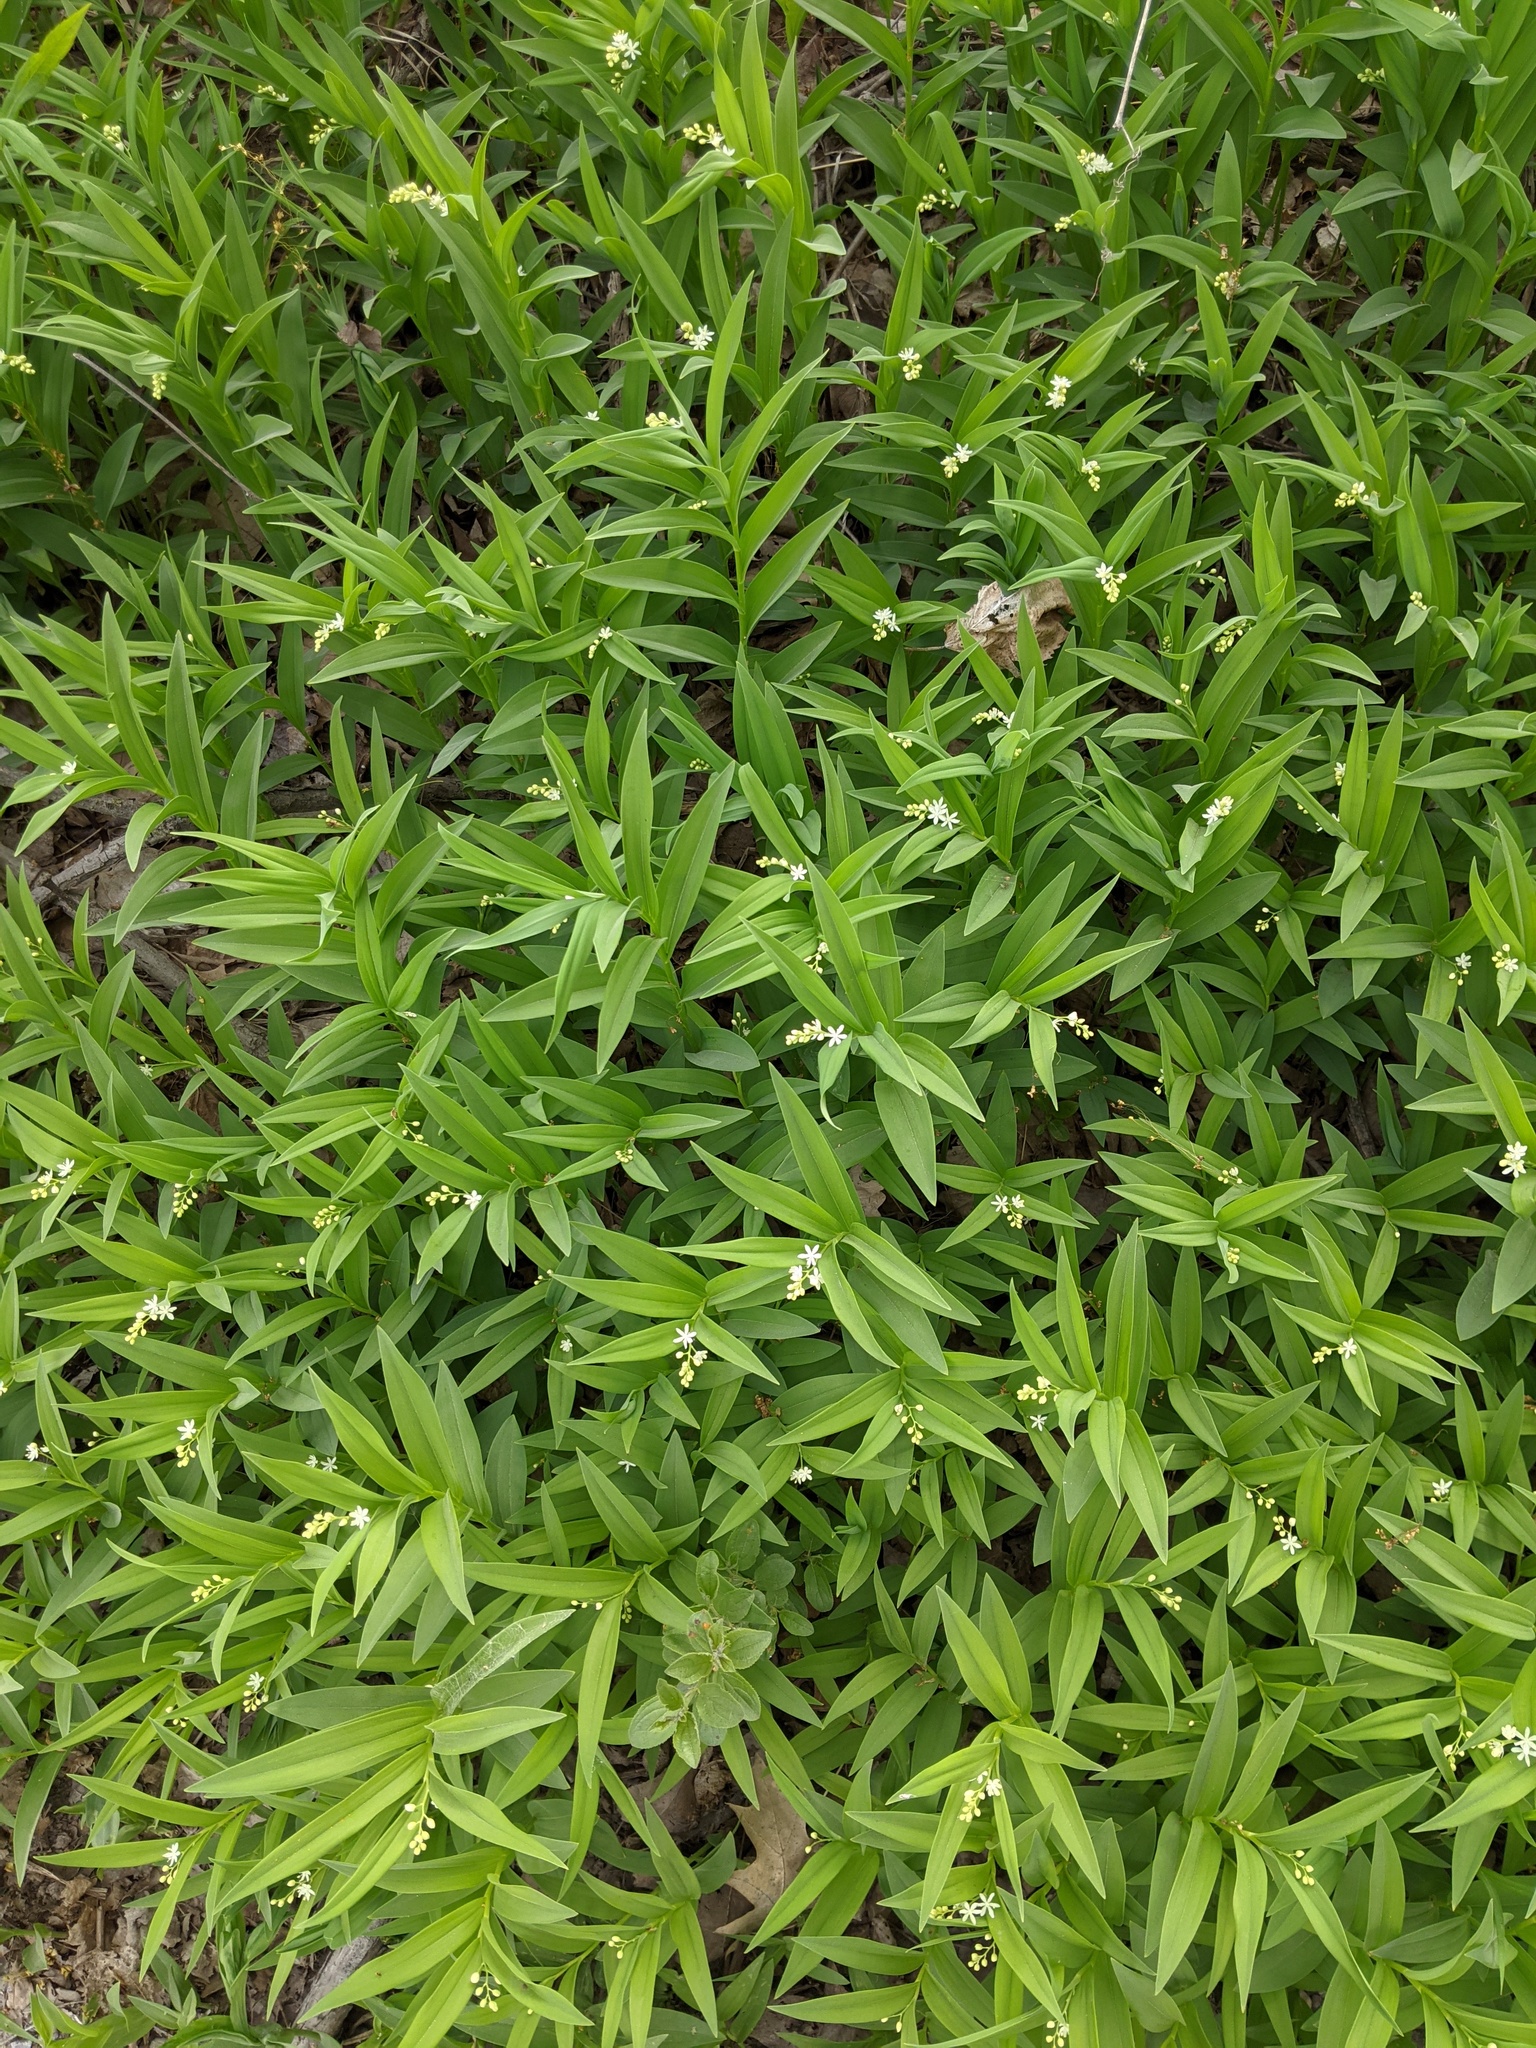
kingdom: Plantae
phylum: Tracheophyta
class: Liliopsida
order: Asparagales
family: Asparagaceae
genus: Maianthemum
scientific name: Maianthemum stellatum
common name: Little false solomon's seal
